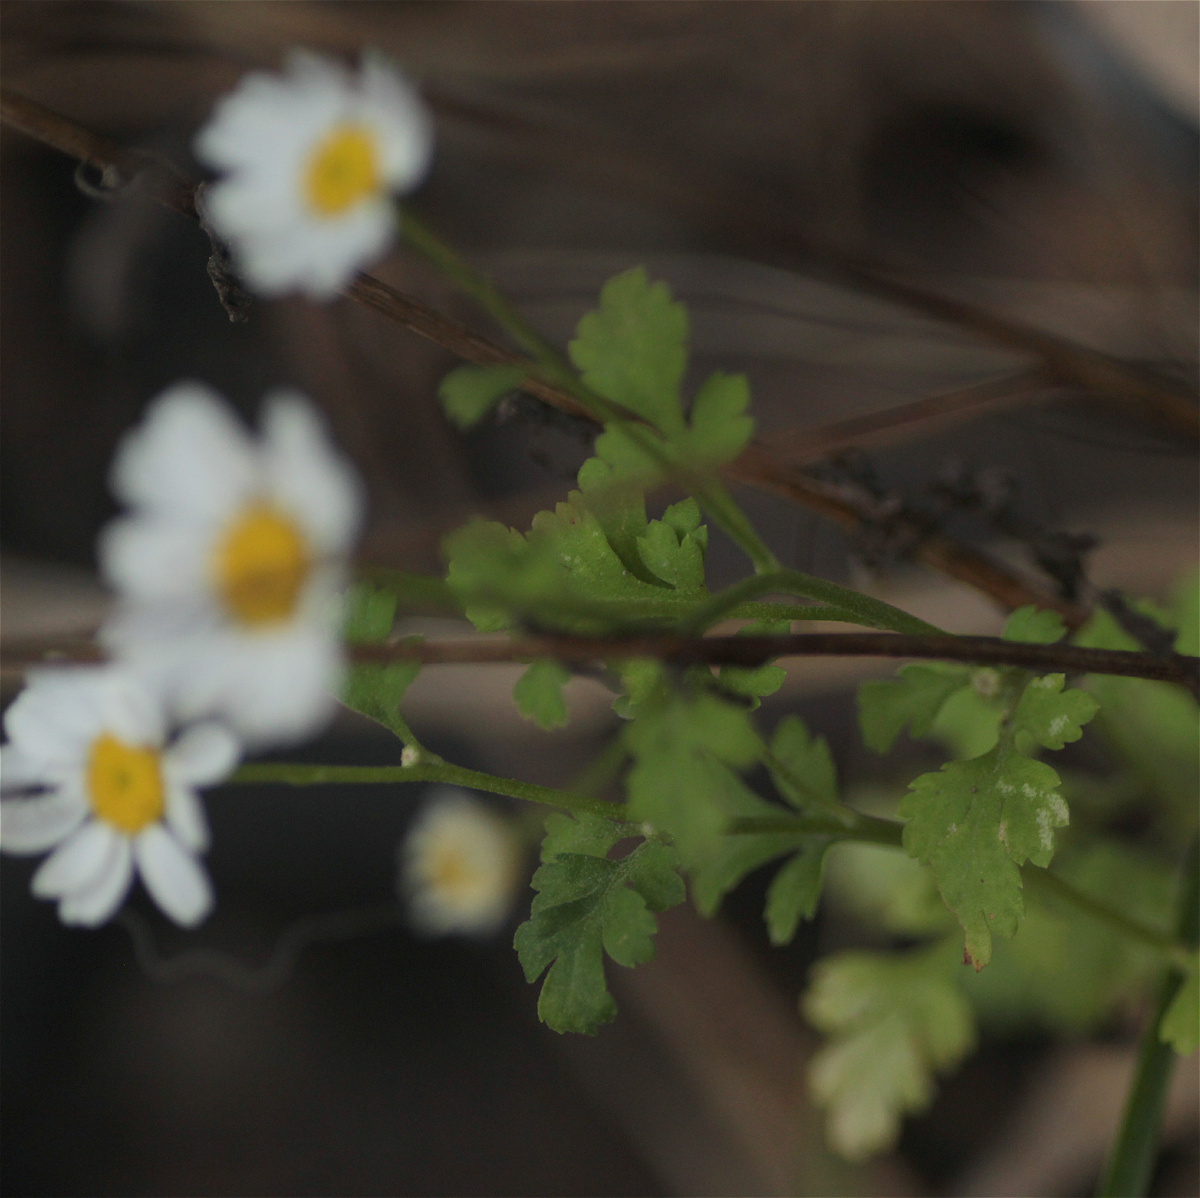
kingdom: Plantae
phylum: Tracheophyta
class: Magnoliopsida
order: Asterales
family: Asteraceae
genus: Tanacetum
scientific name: Tanacetum parthenium
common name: Feverfew
